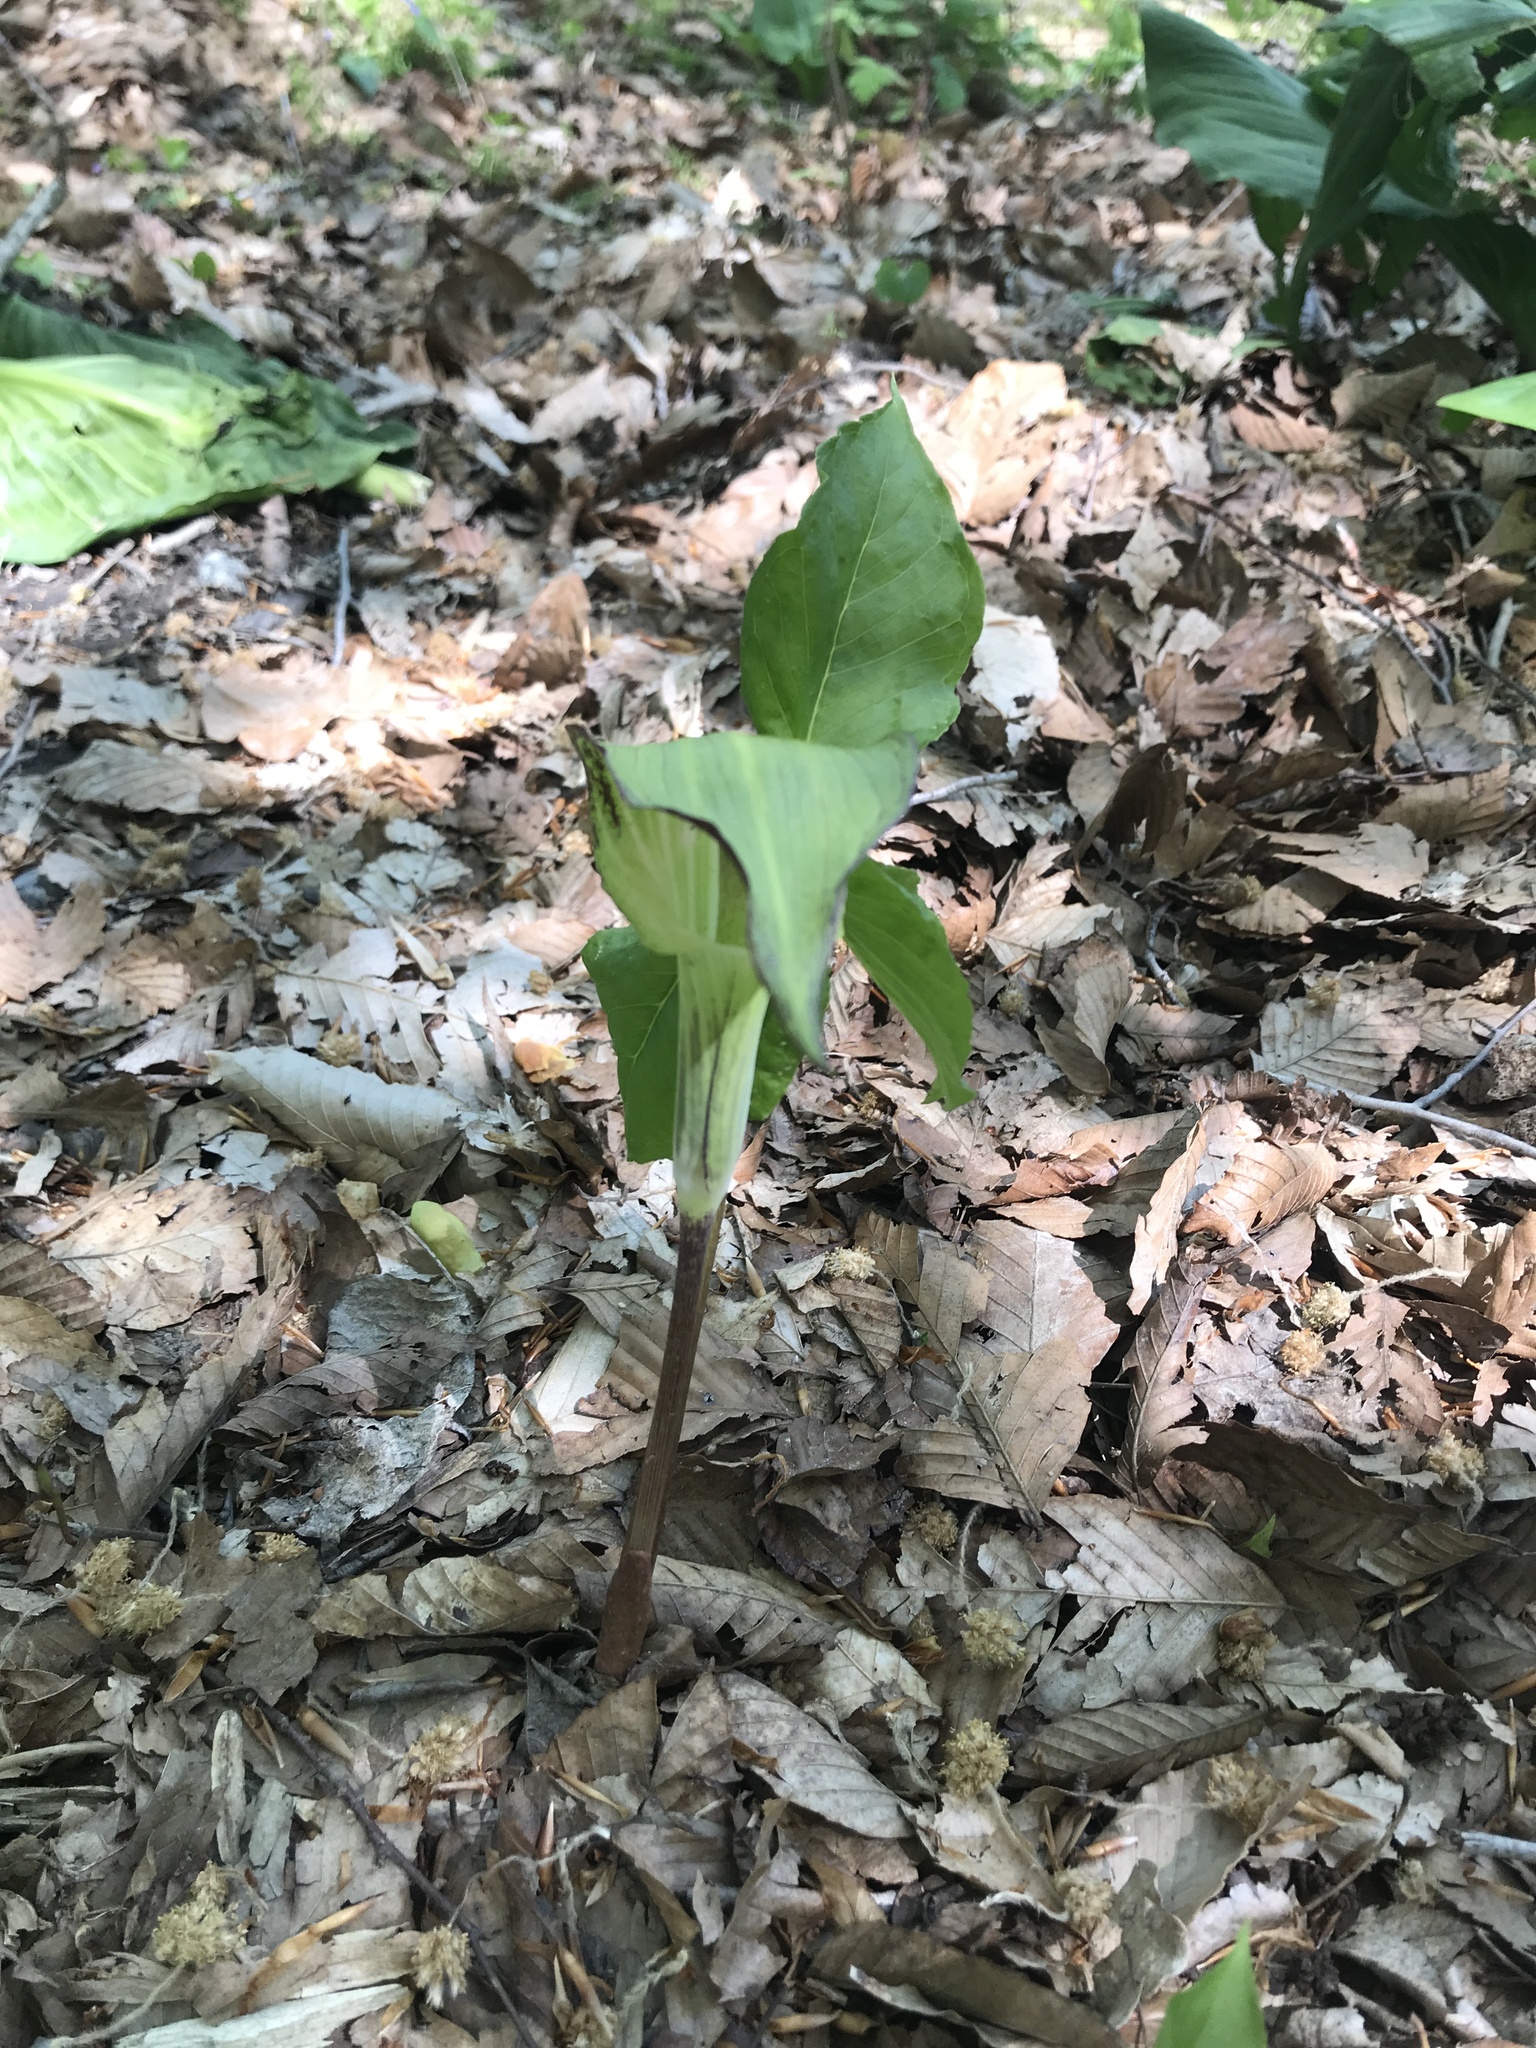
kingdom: Plantae
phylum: Tracheophyta
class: Liliopsida
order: Alismatales
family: Araceae
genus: Arisaema
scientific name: Arisaema triphyllum
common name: Jack-in-the-pulpit
